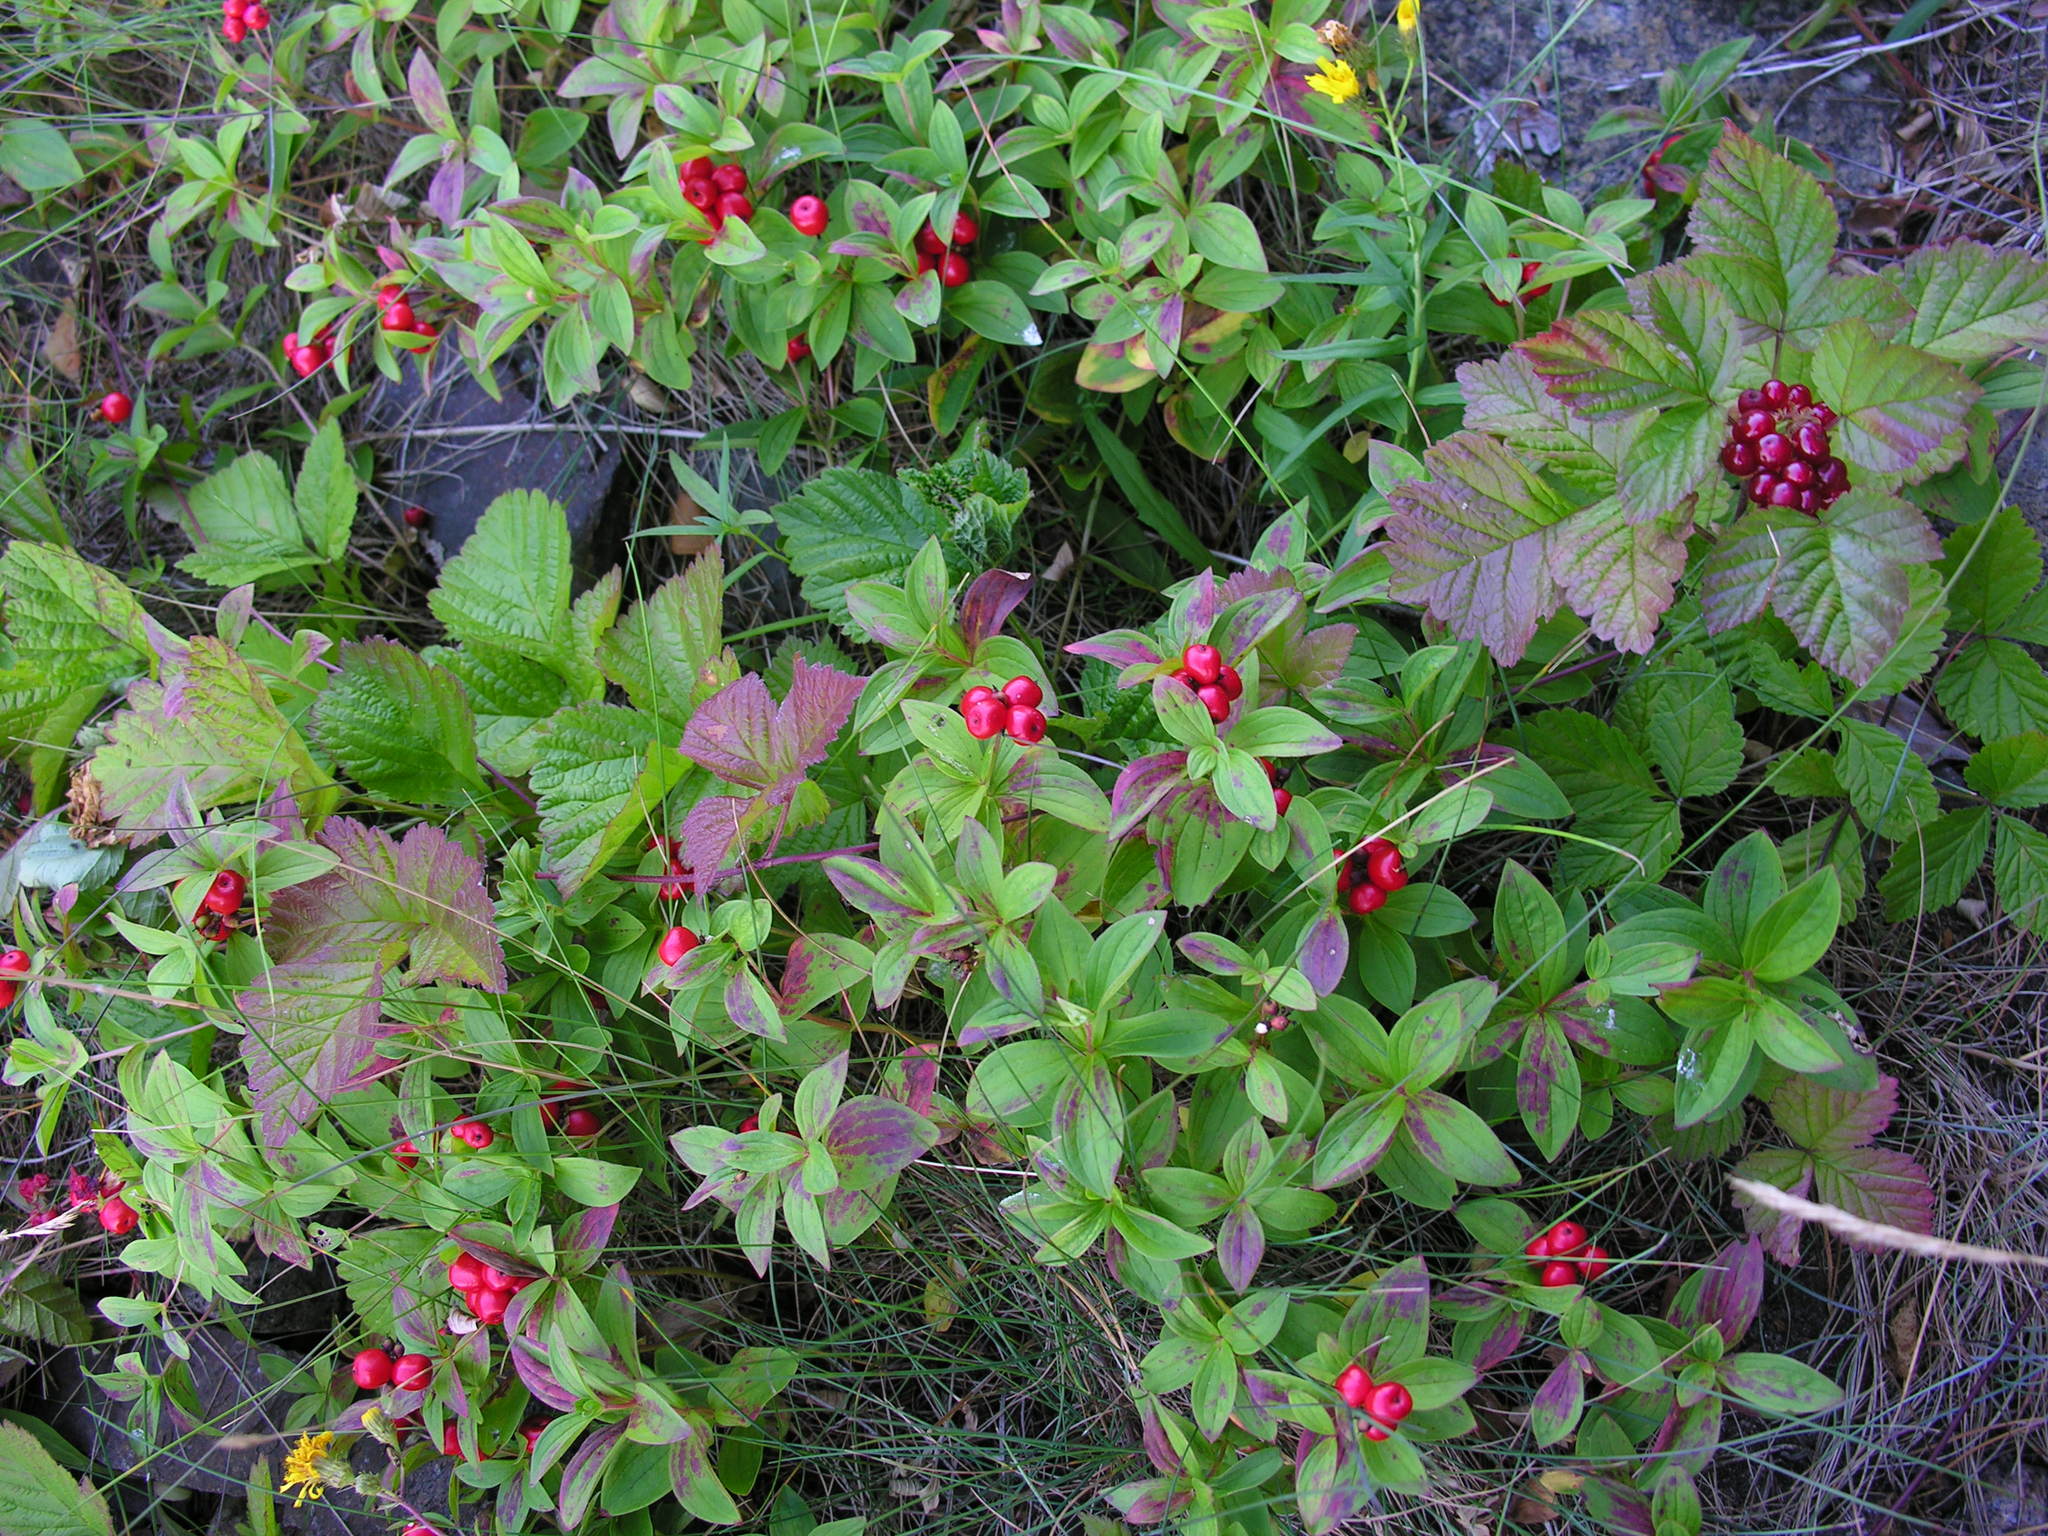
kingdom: Plantae
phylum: Tracheophyta
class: Magnoliopsida
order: Cornales
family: Cornaceae
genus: Cornus
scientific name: Cornus suecica
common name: Dwarf cornel
